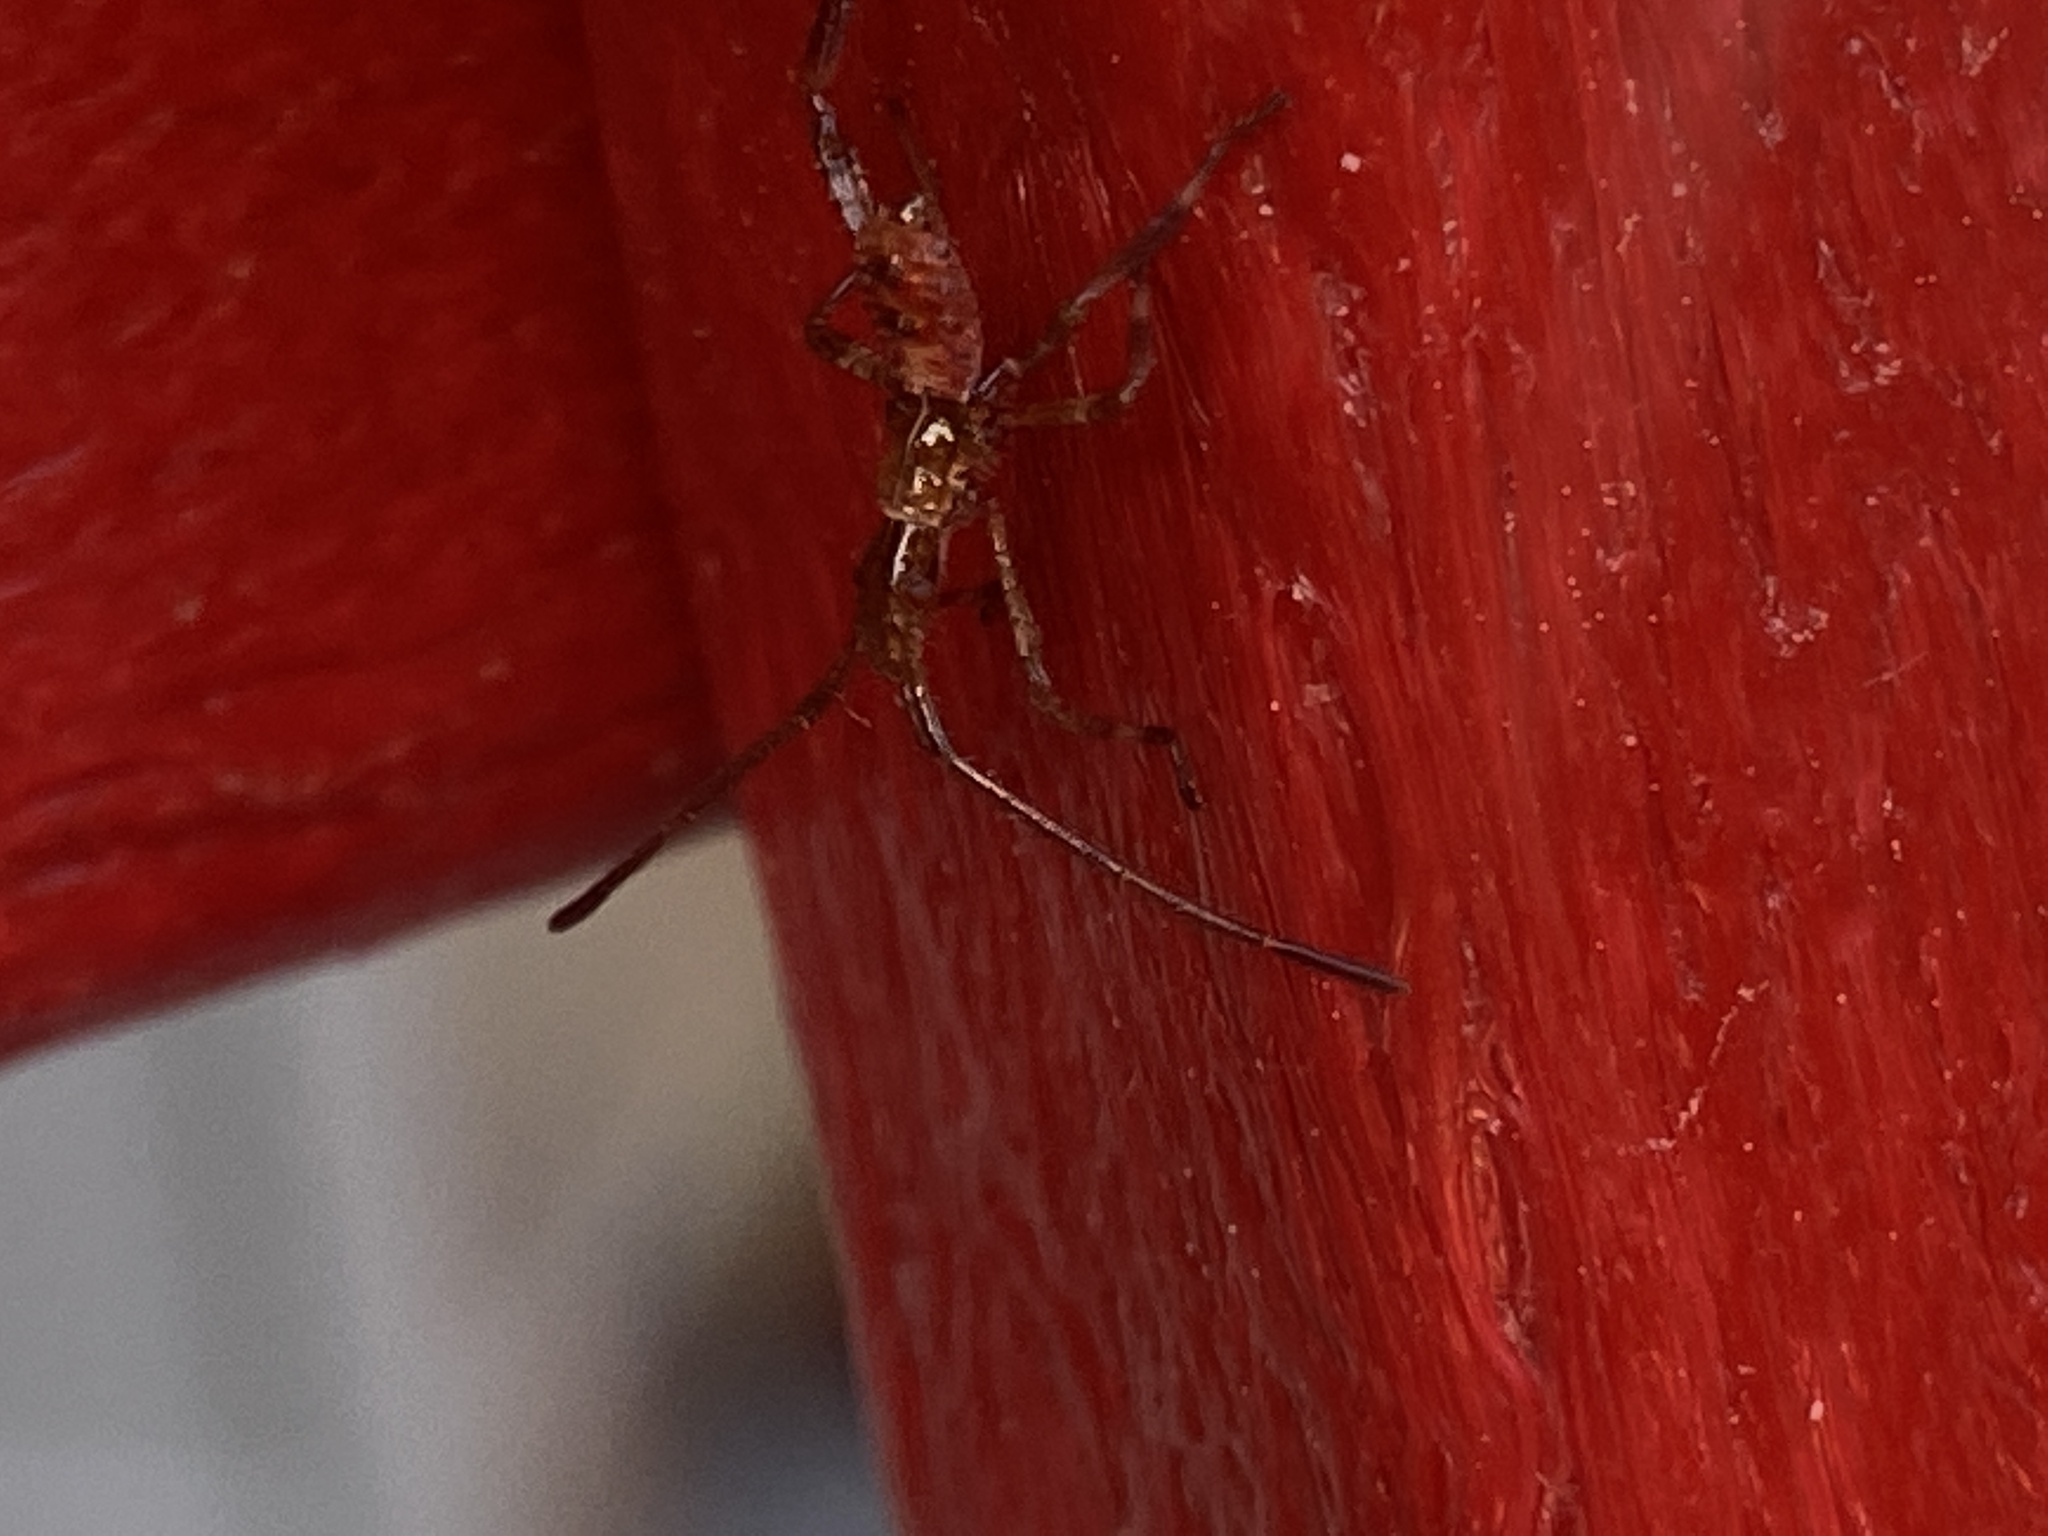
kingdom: Animalia
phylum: Arthropoda
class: Insecta
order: Hemiptera
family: Coreidae
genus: Leptoglossus
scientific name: Leptoglossus occidentalis
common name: Western conifer-seed bug
